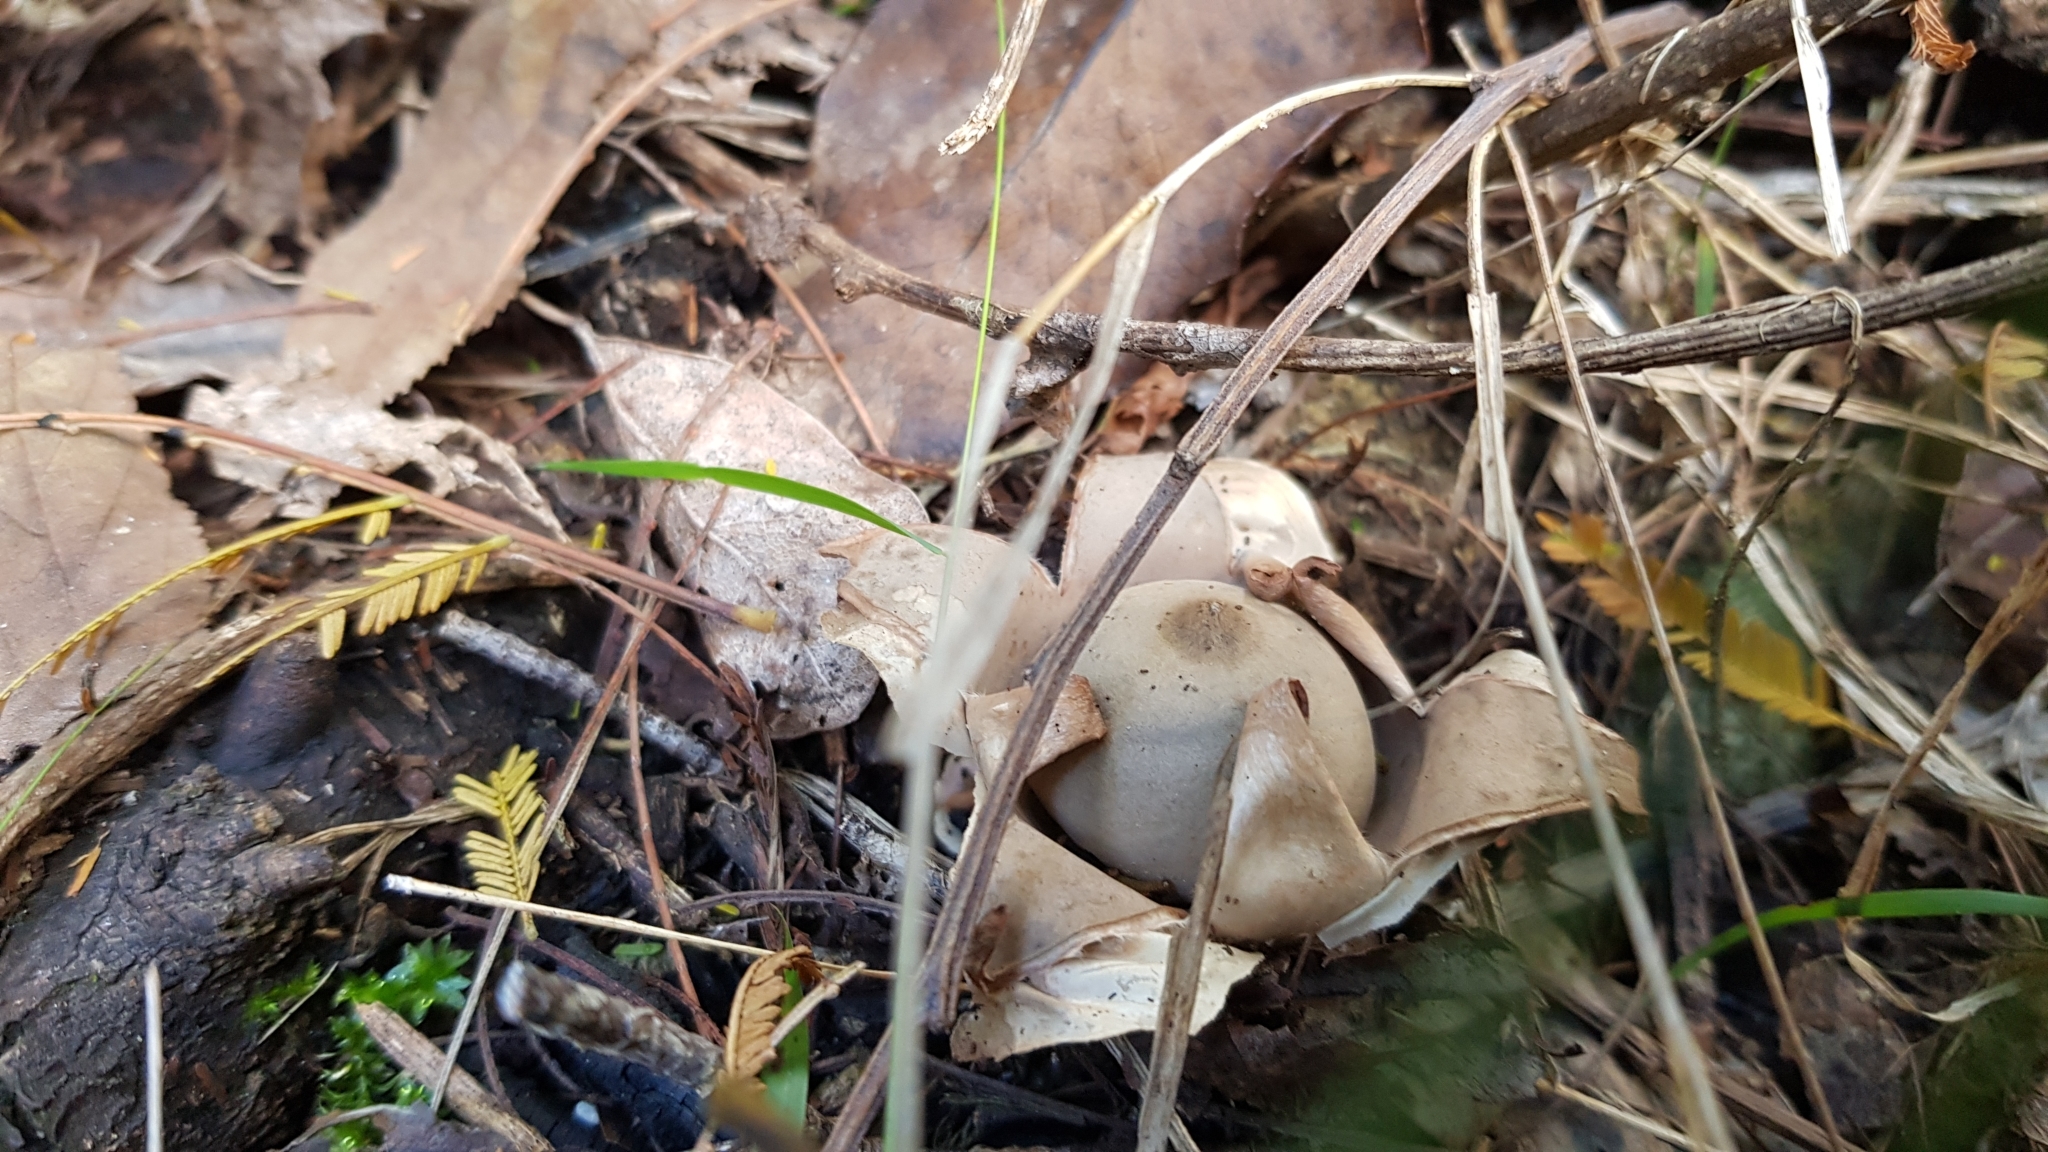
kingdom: Fungi
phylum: Basidiomycota
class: Agaricomycetes
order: Geastrales
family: Geastraceae
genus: Geastrum
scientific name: Geastrum triplex
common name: Collared earthstar
